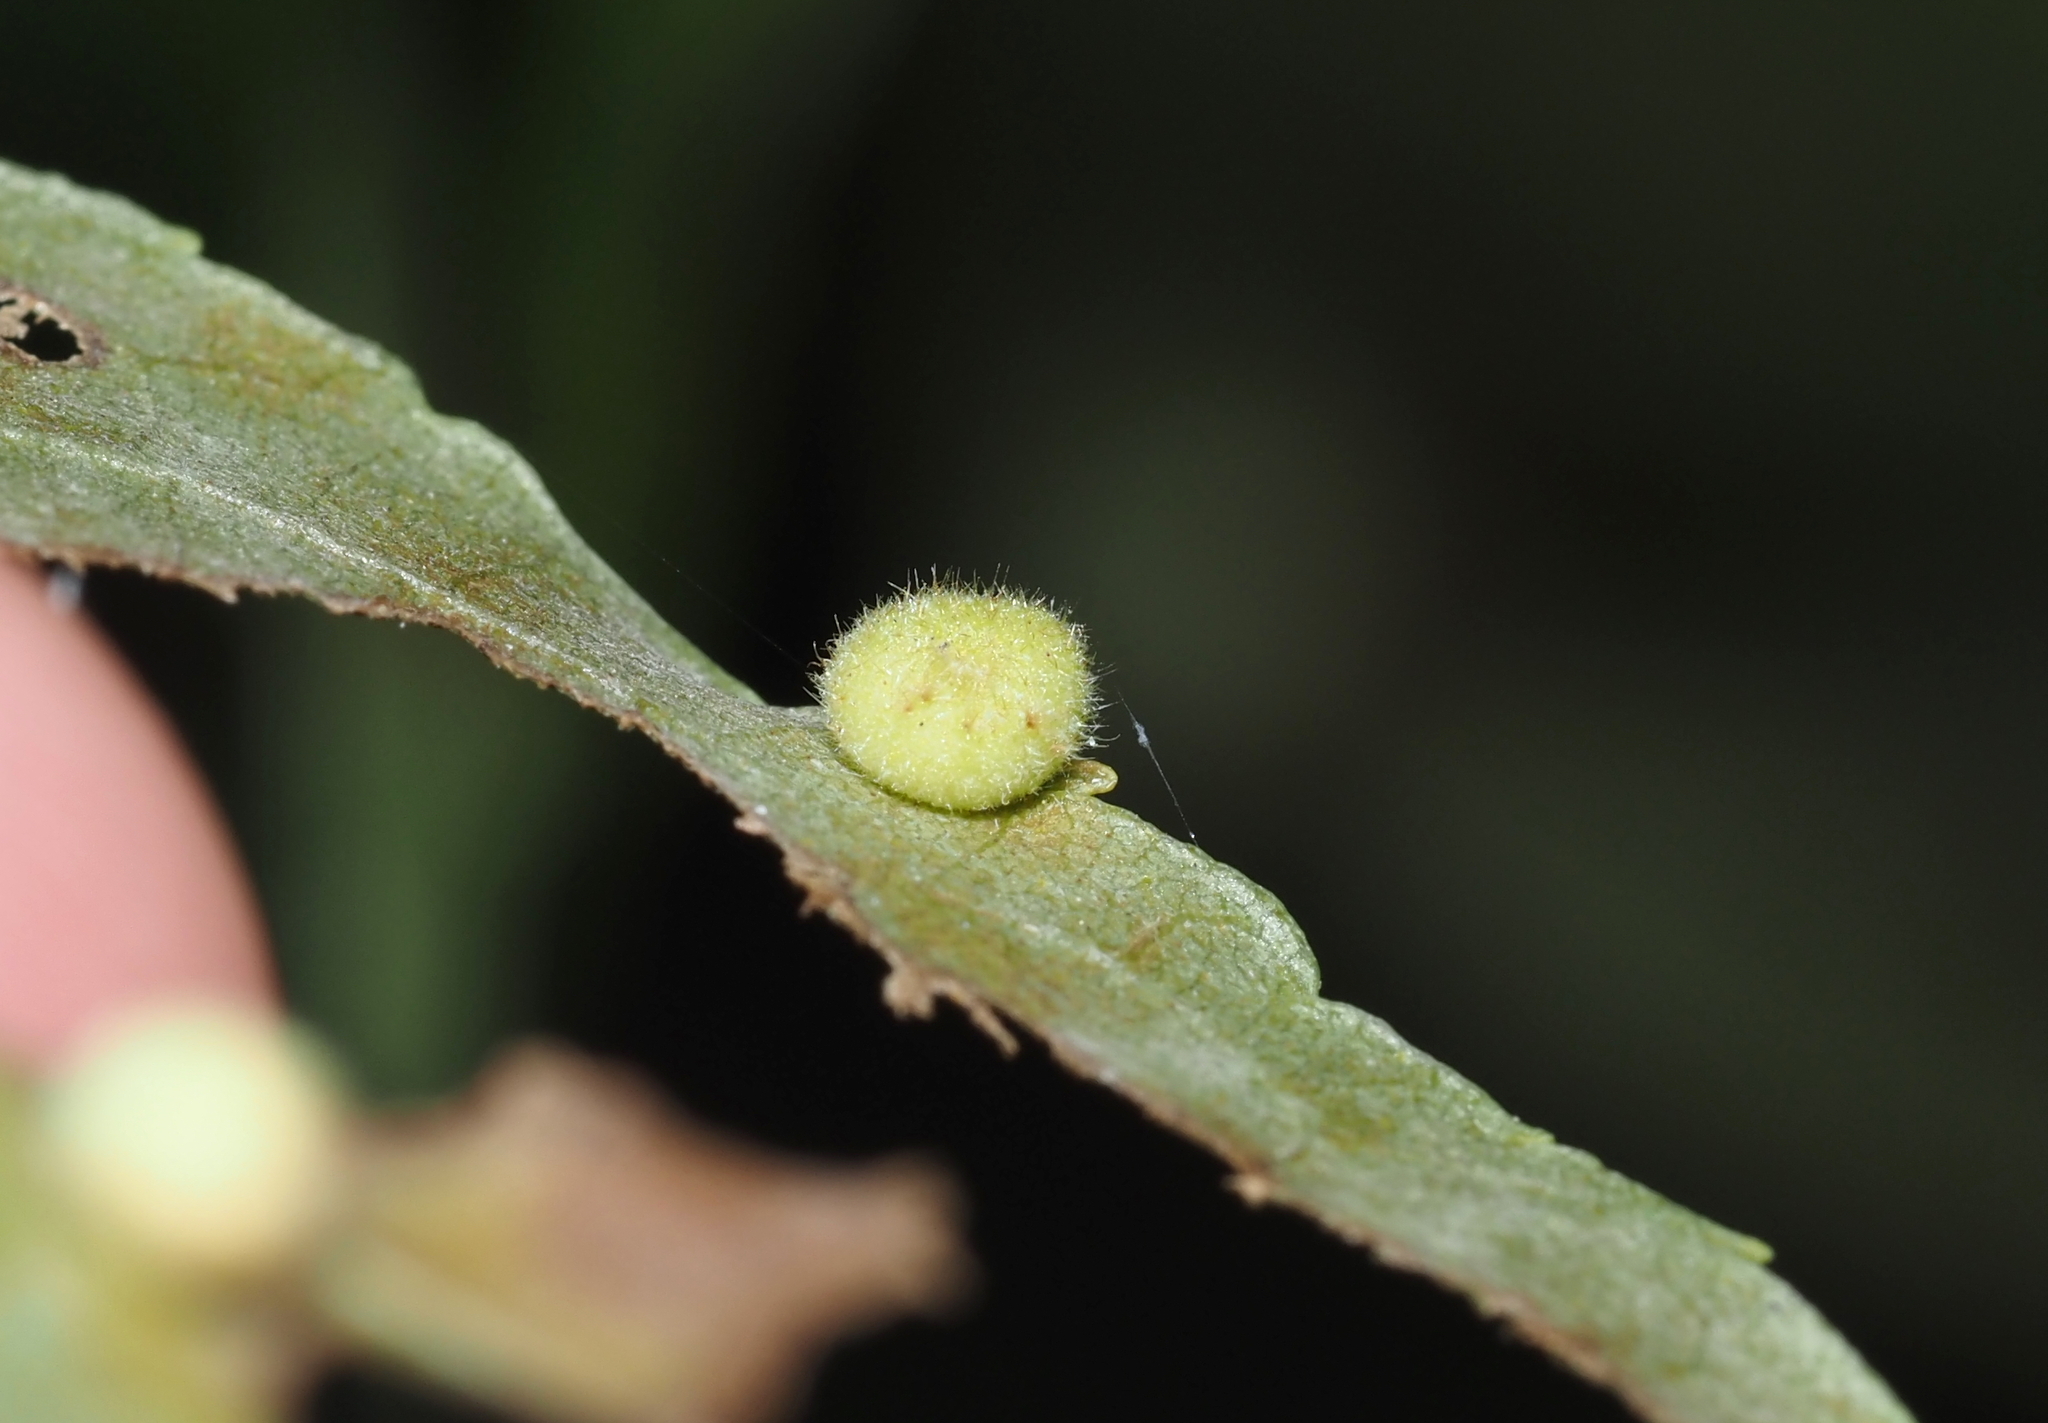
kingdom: Animalia
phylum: Arthropoda
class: Insecta
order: Diptera
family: Cecidomyiidae
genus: Caryomyia
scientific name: Caryomyia thompsoni
